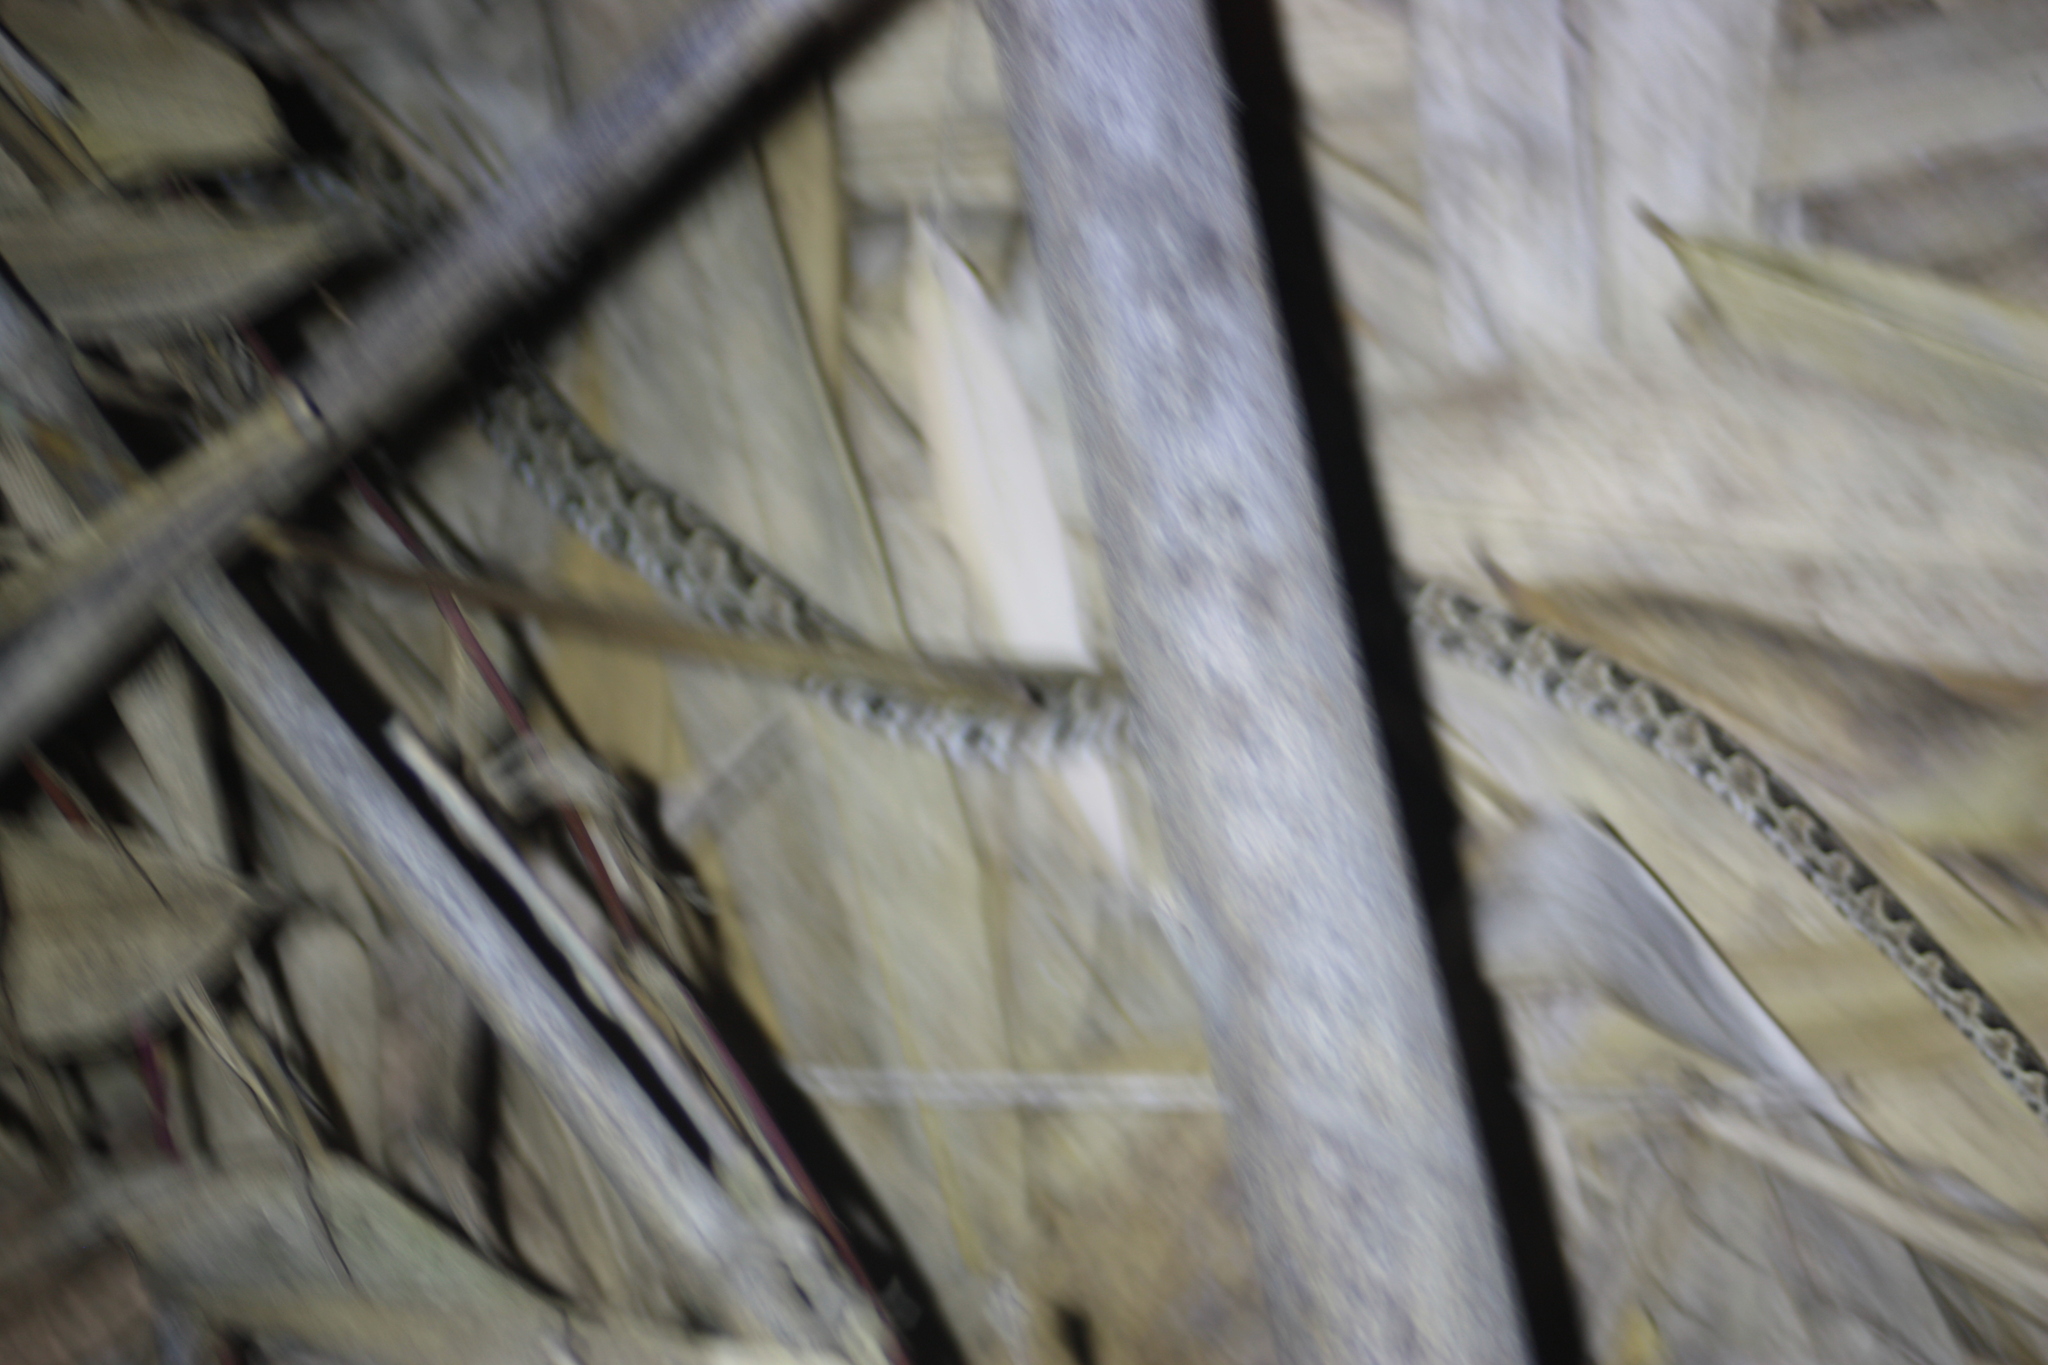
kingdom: Animalia
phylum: Chordata
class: Squamata
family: Viperidae
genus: Protobothrops
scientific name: Protobothrops mucrosquamatus
